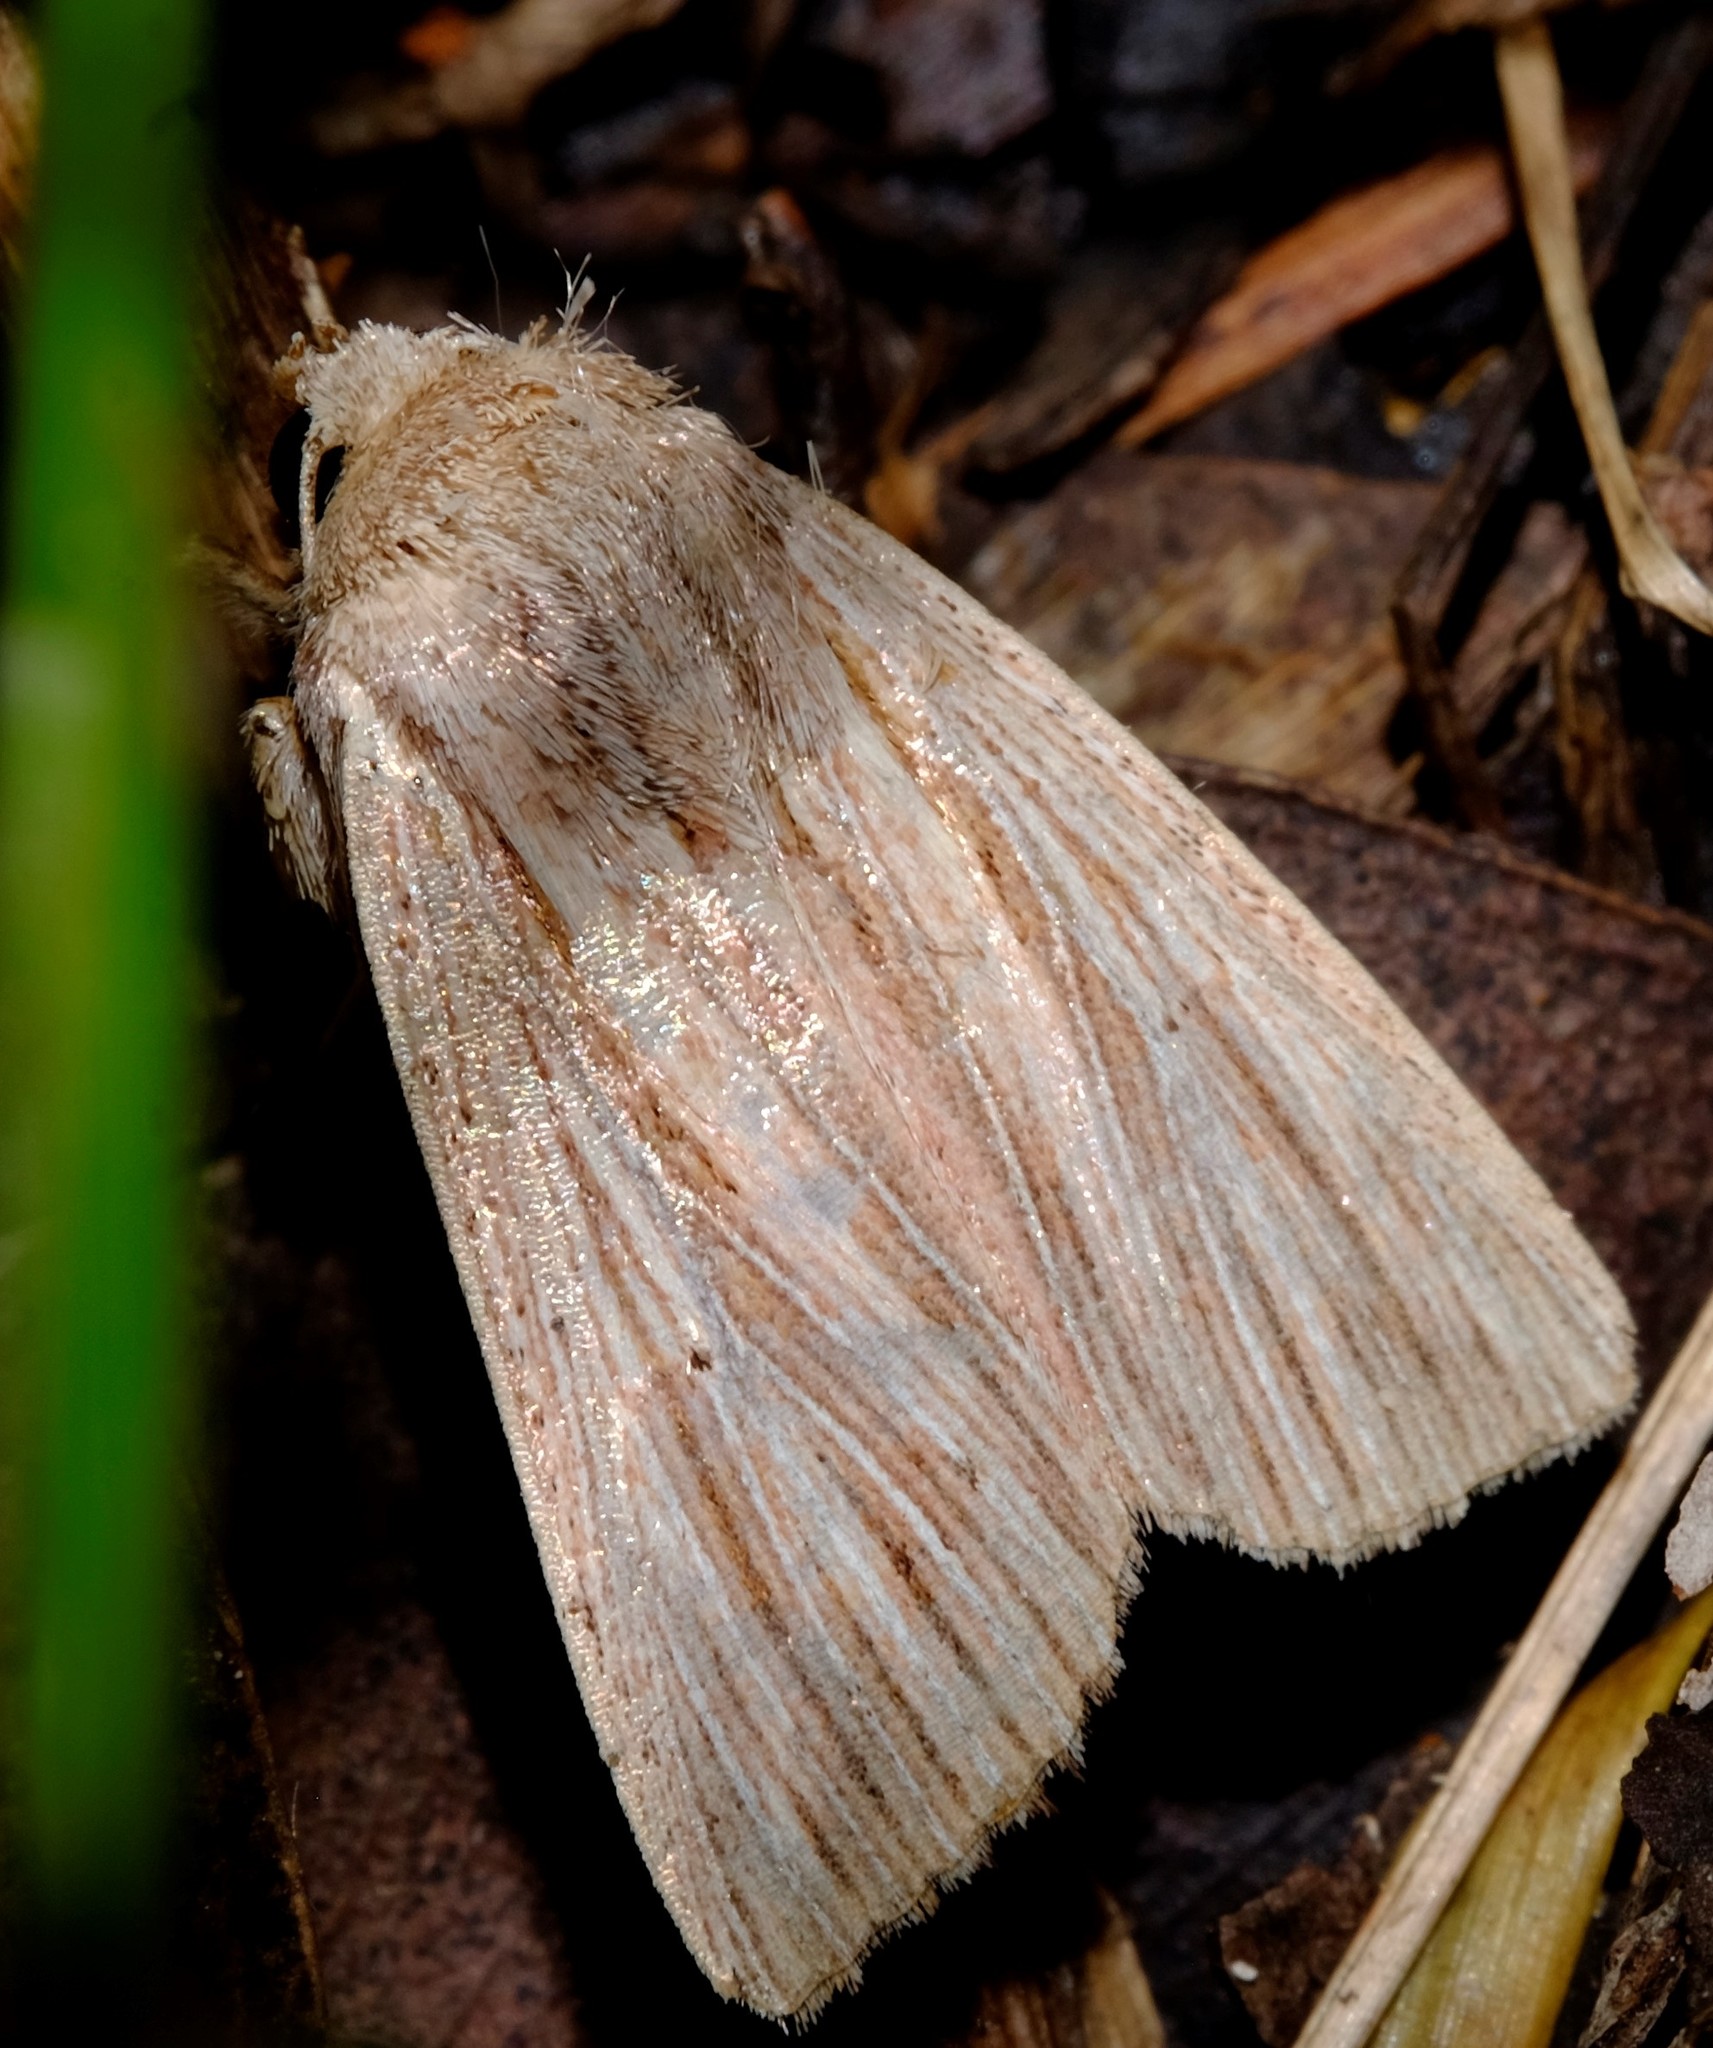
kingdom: Animalia
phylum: Arthropoda
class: Insecta
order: Lepidoptera
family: Noctuidae
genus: Leucania
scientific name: Leucania porphyrodes
